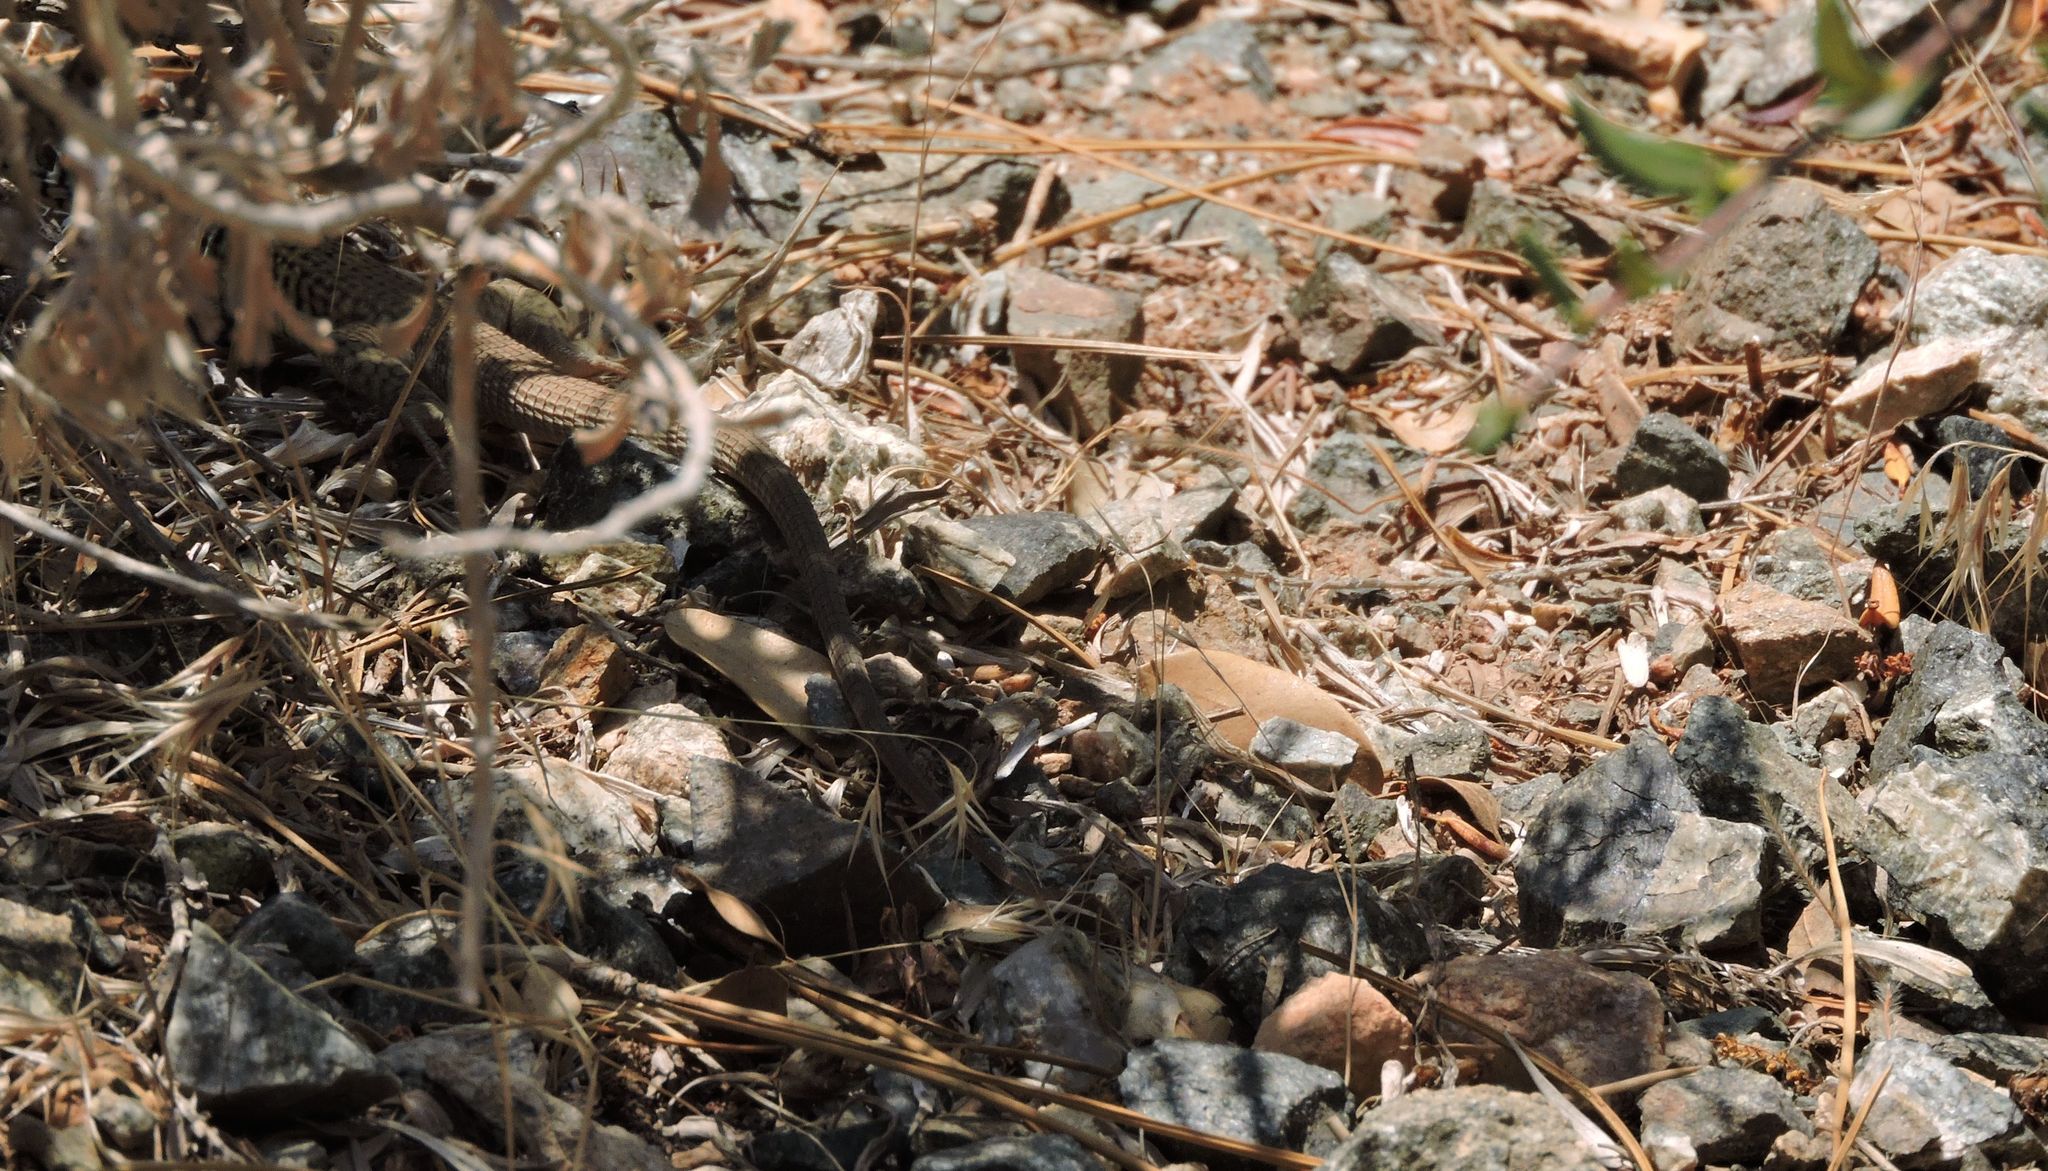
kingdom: Animalia
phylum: Chordata
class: Squamata
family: Teiidae
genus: Aspidoscelis
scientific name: Aspidoscelis tigris
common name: Tiger whiptail
